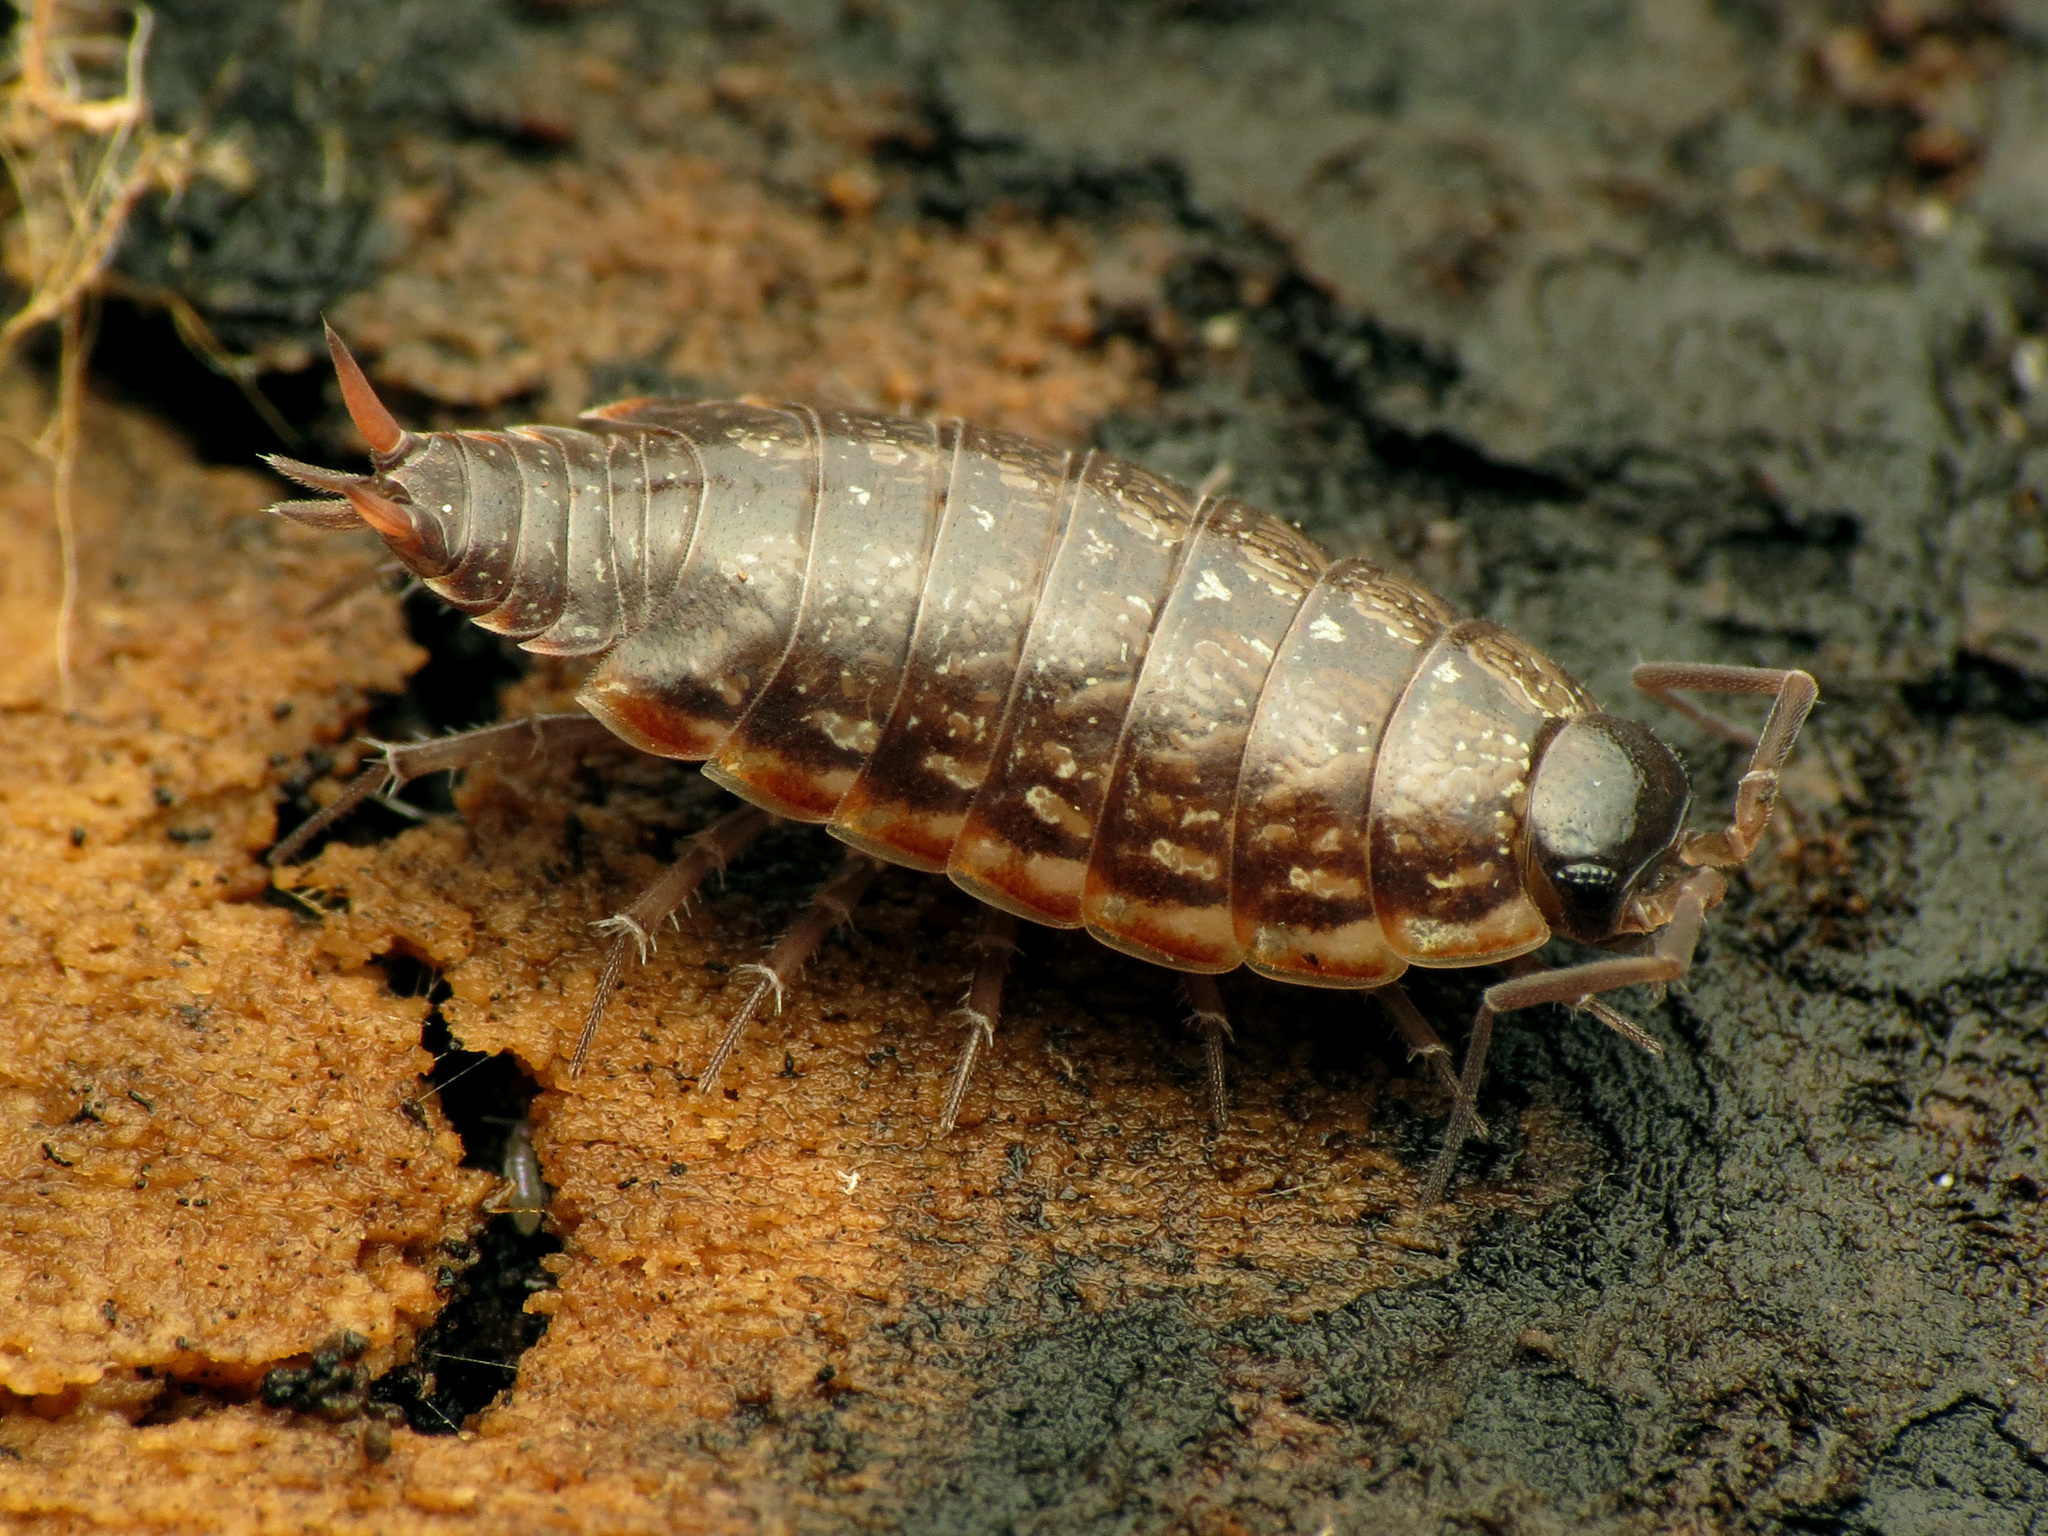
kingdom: Animalia
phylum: Arthropoda
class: Malacostraca
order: Isopoda
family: Philosciidae
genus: Philoscia
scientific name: Philoscia muscorum
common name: Common striped woodlouse
